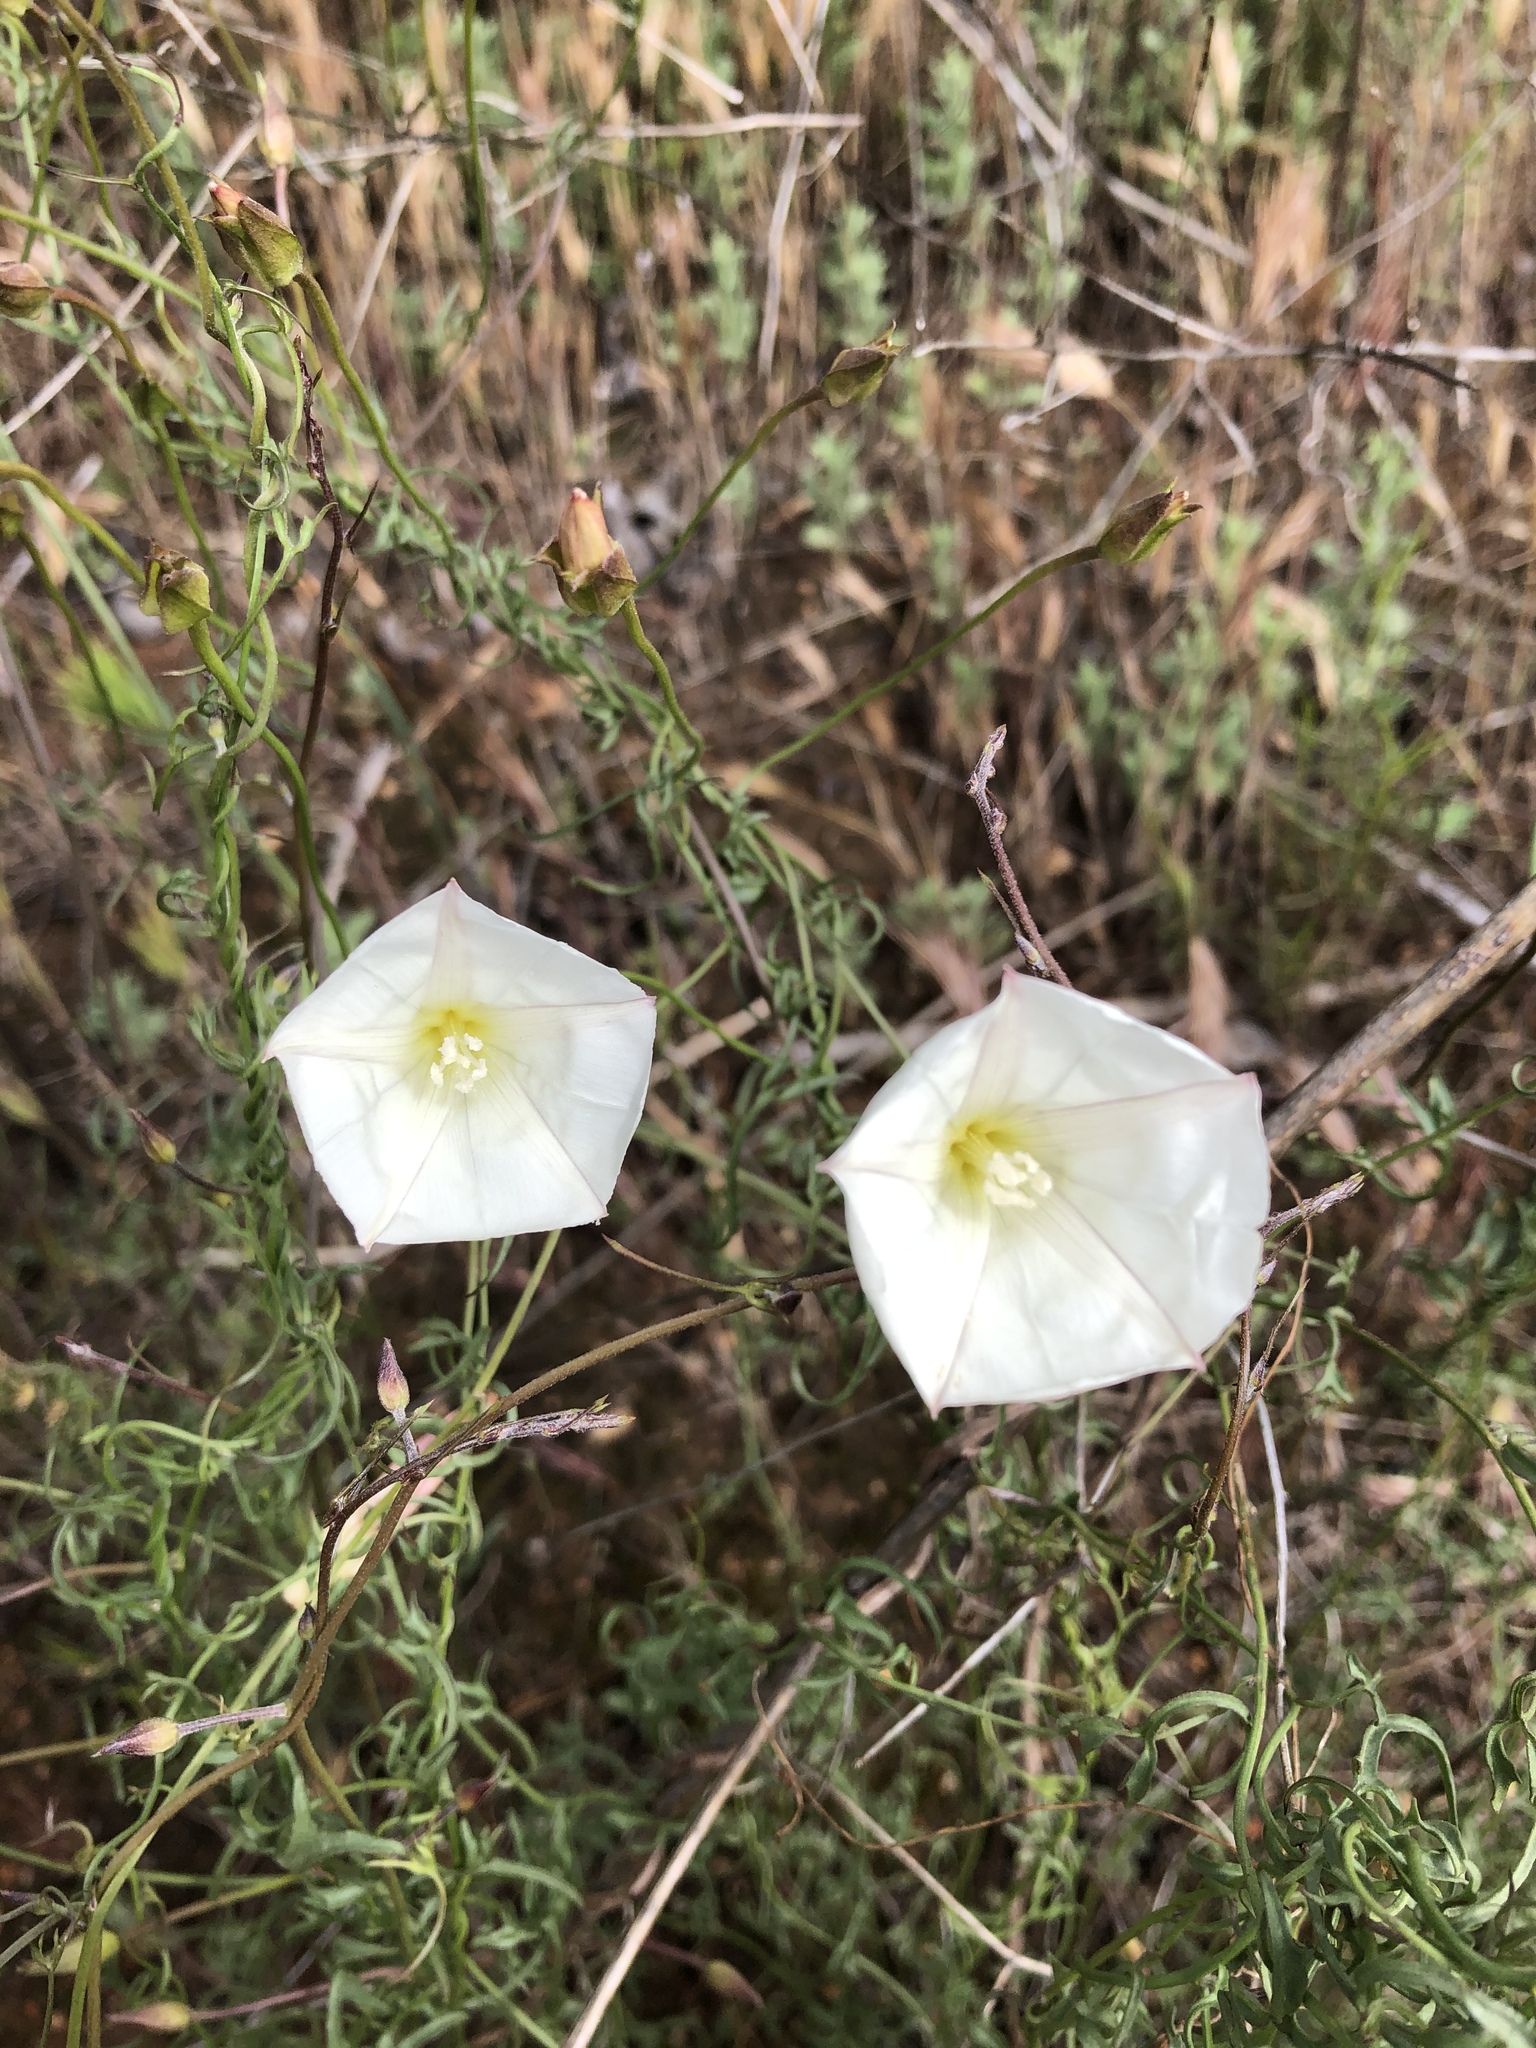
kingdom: Plantae
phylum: Tracheophyta
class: Magnoliopsida
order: Solanales
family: Convolvulaceae
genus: Calystegia
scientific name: Calystegia macrostegia
